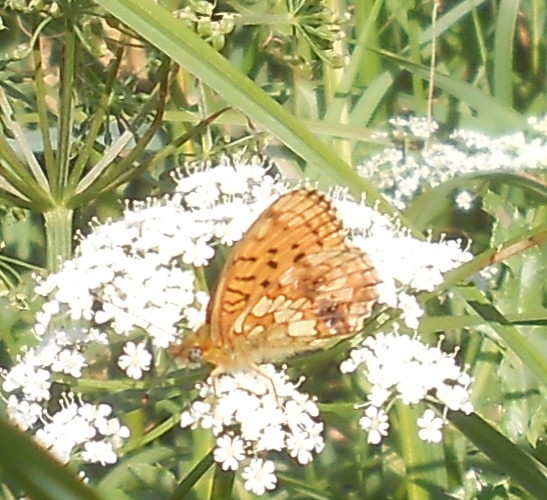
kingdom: Animalia
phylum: Arthropoda
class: Insecta
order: Lepidoptera
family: Nymphalidae
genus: Brenthis
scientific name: Brenthis ino
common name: Lesser marbled fritillary
